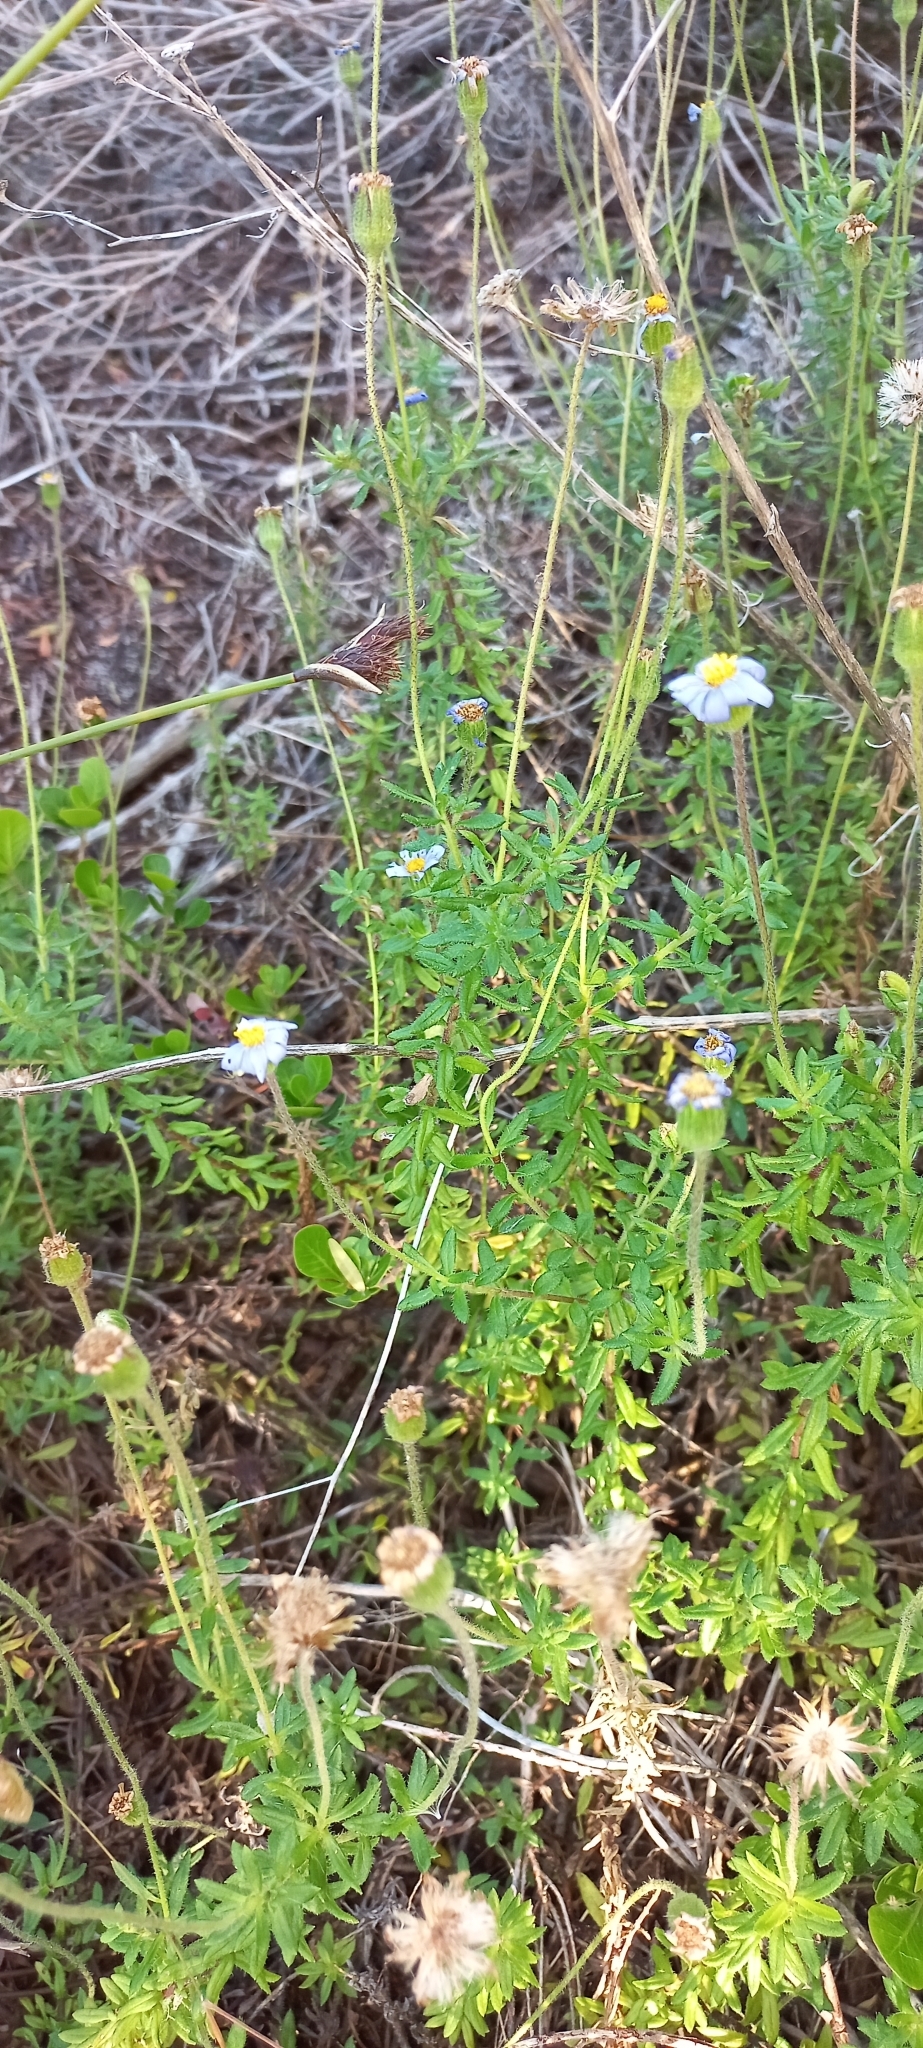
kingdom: Plantae
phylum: Tracheophyta
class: Magnoliopsida
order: Asterales
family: Asteraceae
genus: Felicia
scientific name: Felicia aethiopica
